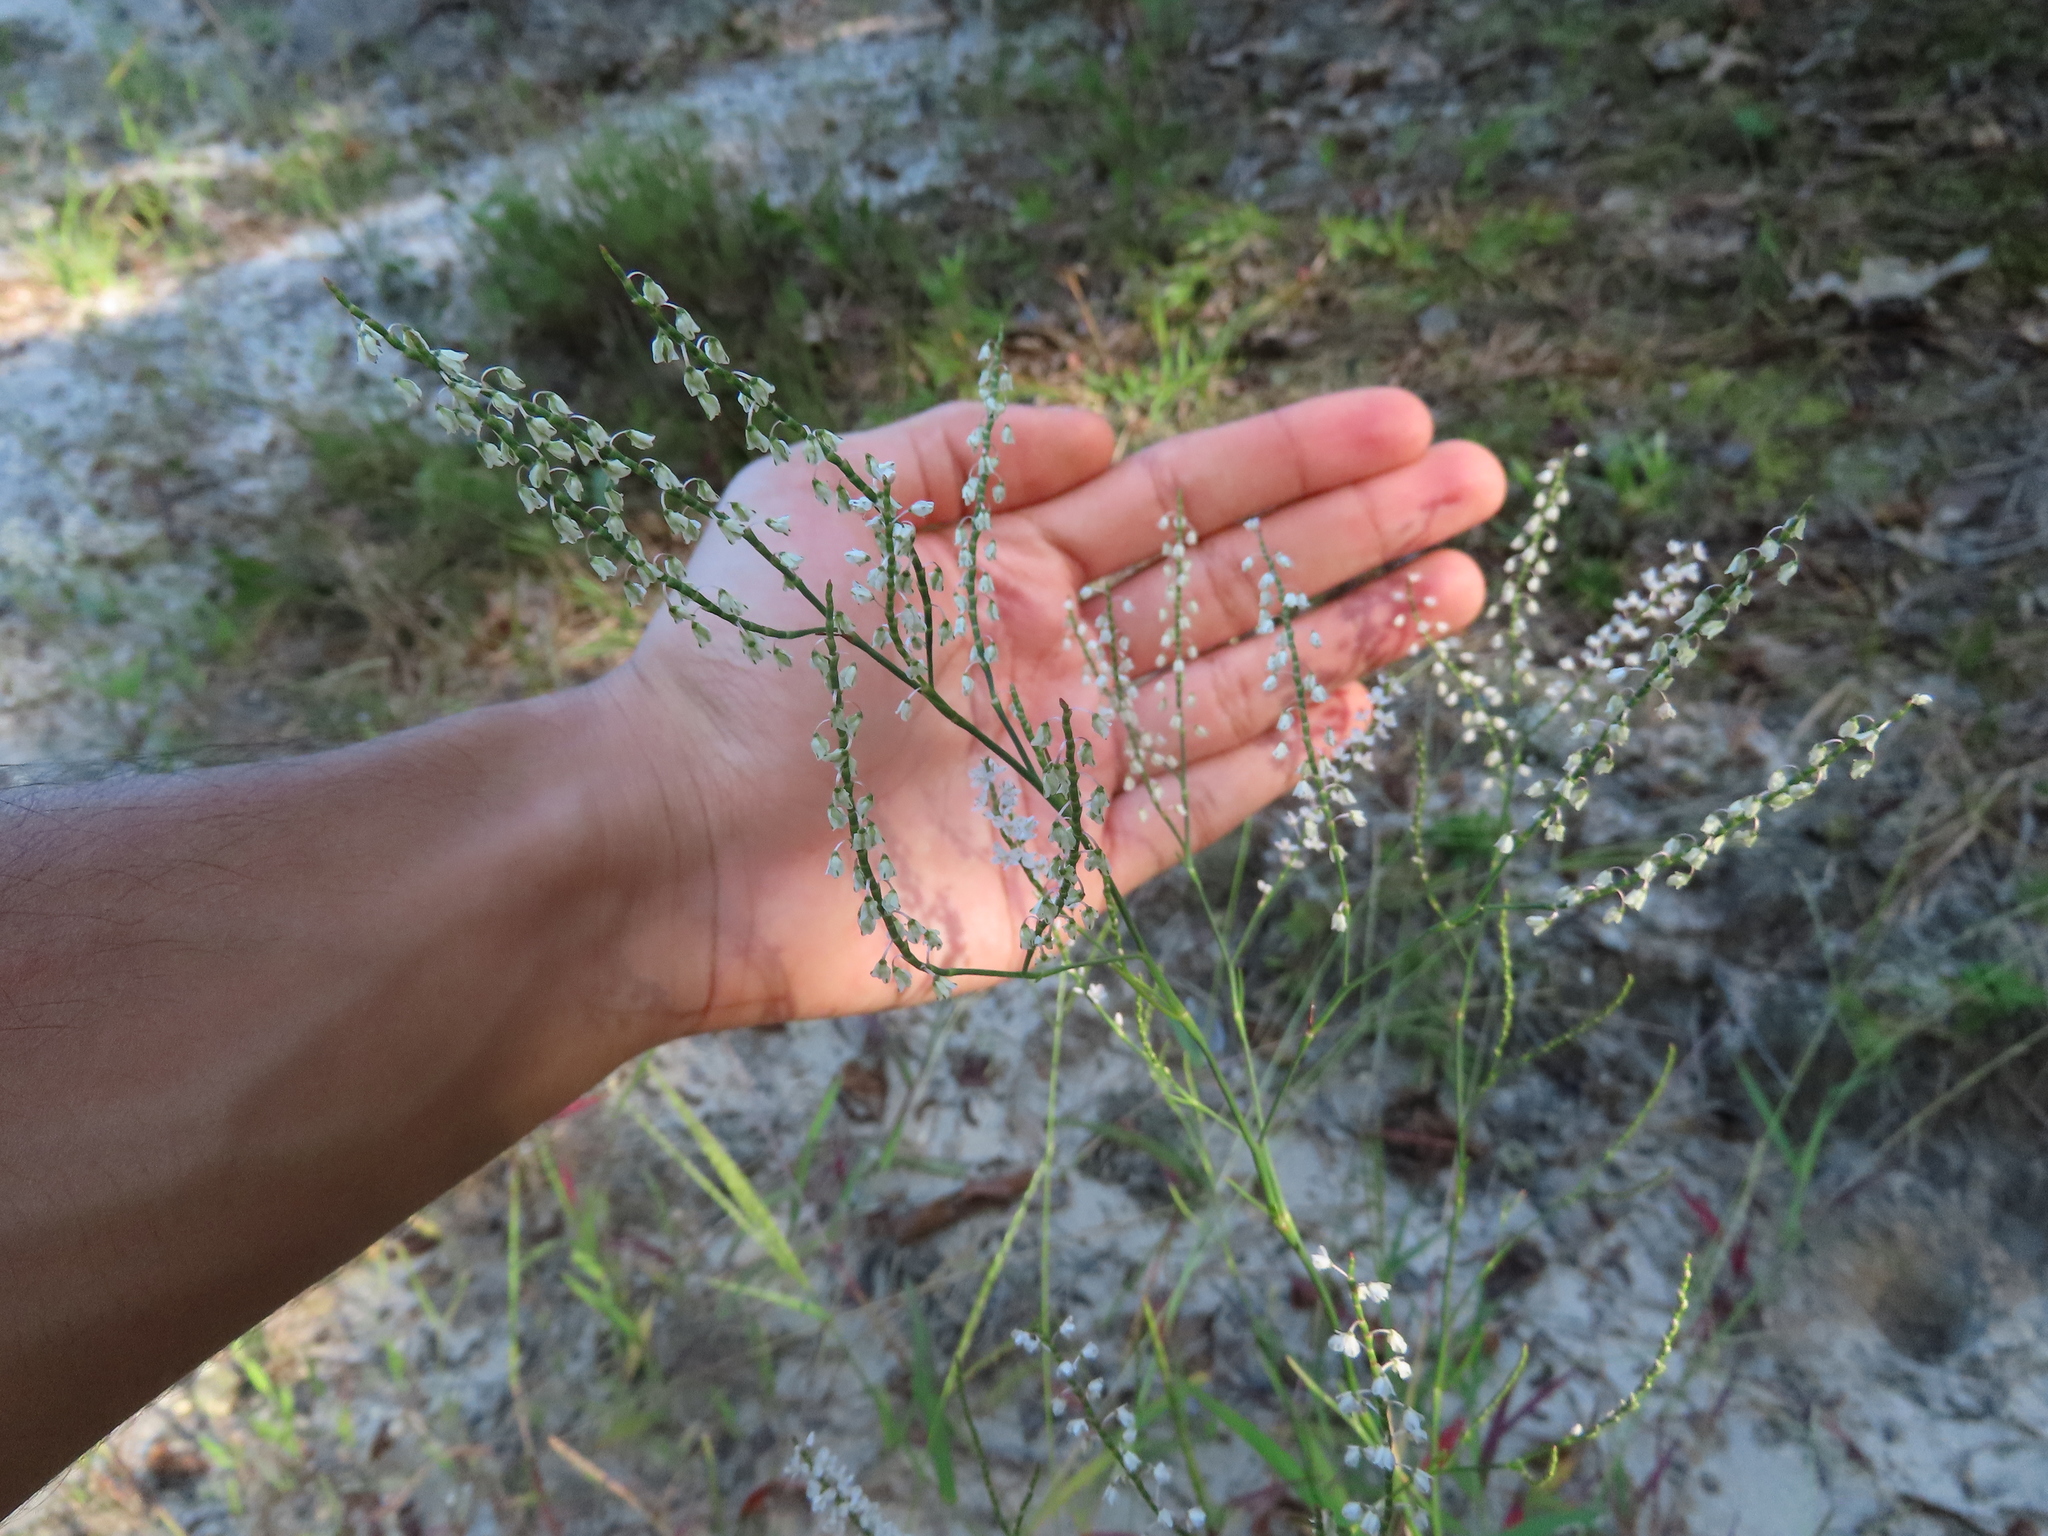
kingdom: Plantae
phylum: Tracheophyta
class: Magnoliopsida
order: Caryophyllales
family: Polygonaceae
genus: Polygonella
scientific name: Polygonella articulata
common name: Coastal jointweed
